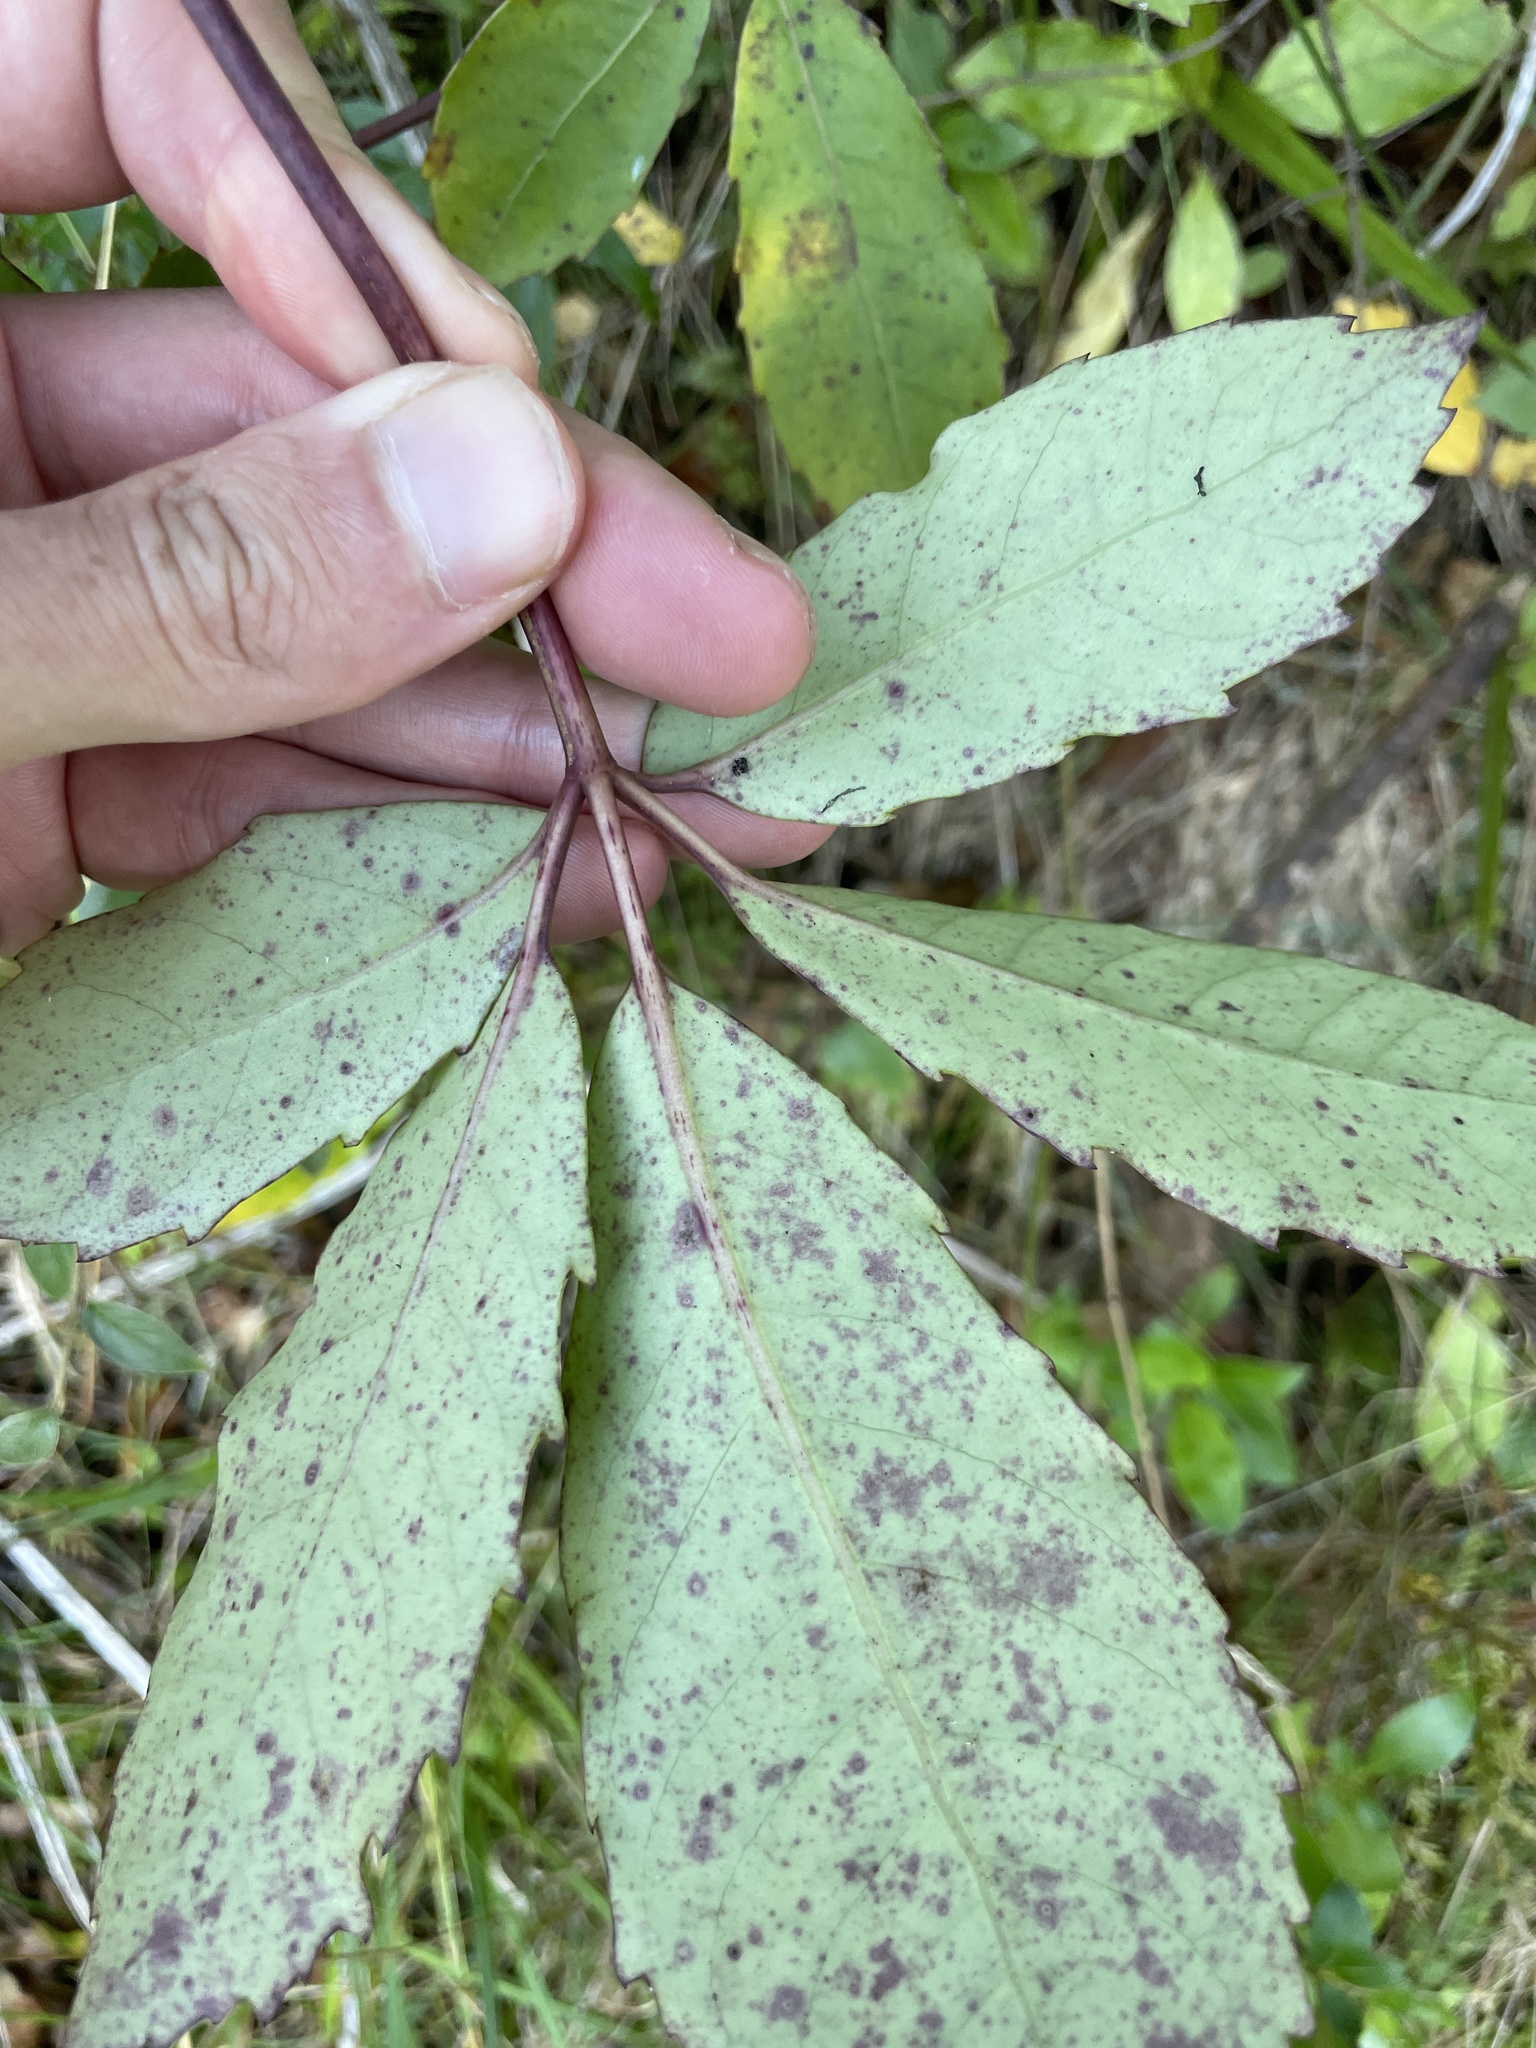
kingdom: Plantae
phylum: Tracheophyta
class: Magnoliopsida
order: Apiales
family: Araliaceae
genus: Neopanax
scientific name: Neopanax arboreus
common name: Five-fingers
